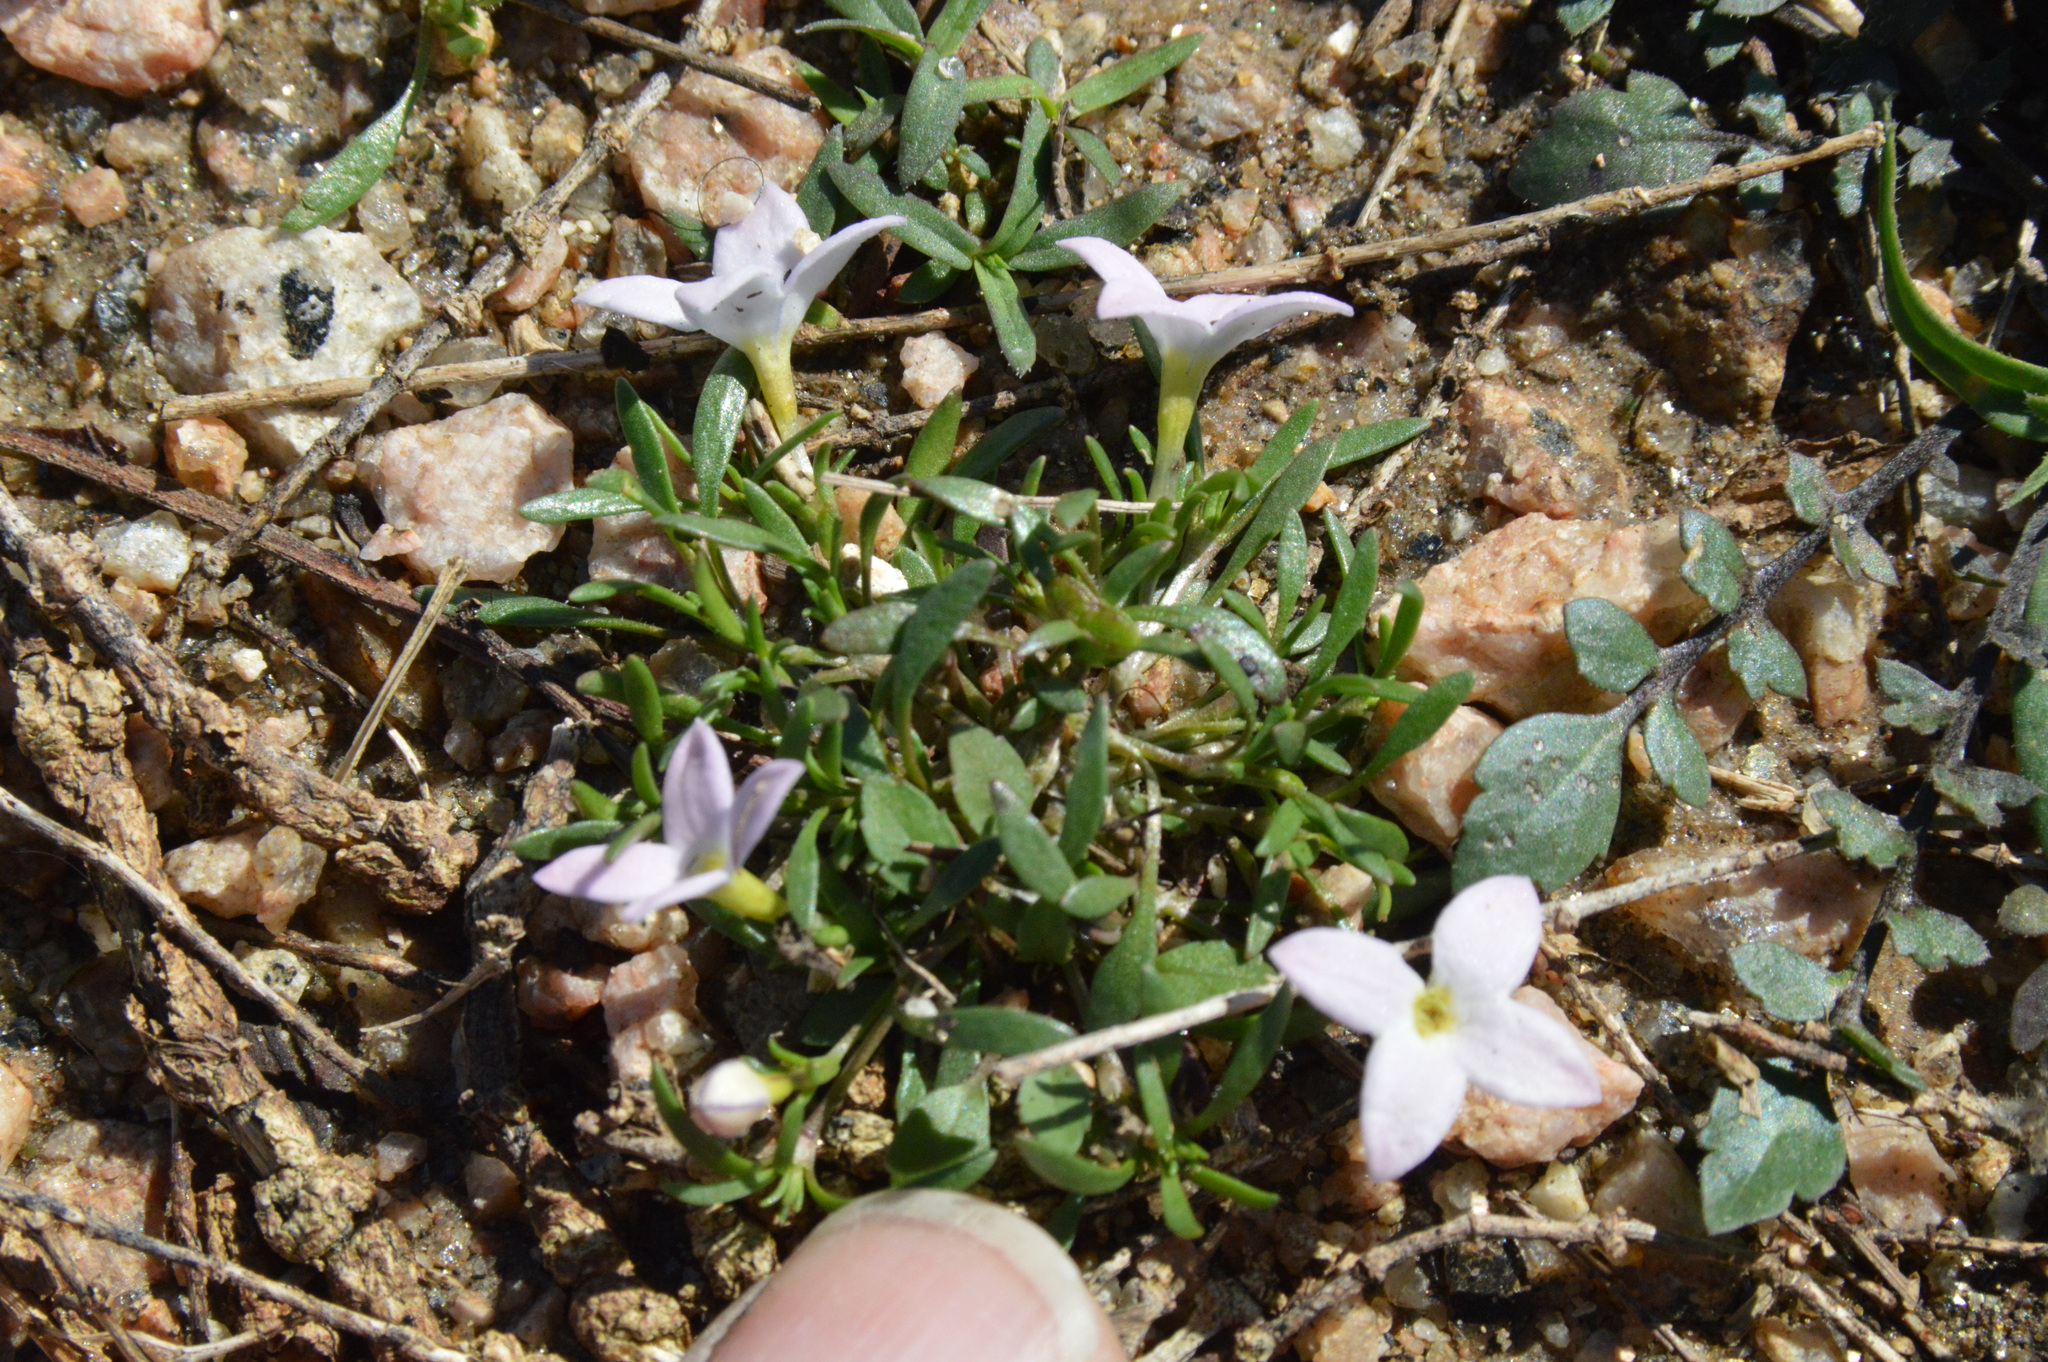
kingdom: Plantae
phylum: Tracheophyta
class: Magnoliopsida
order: Gentianales
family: Rubiaceae
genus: Houstonia
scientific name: Houstonia rosea
